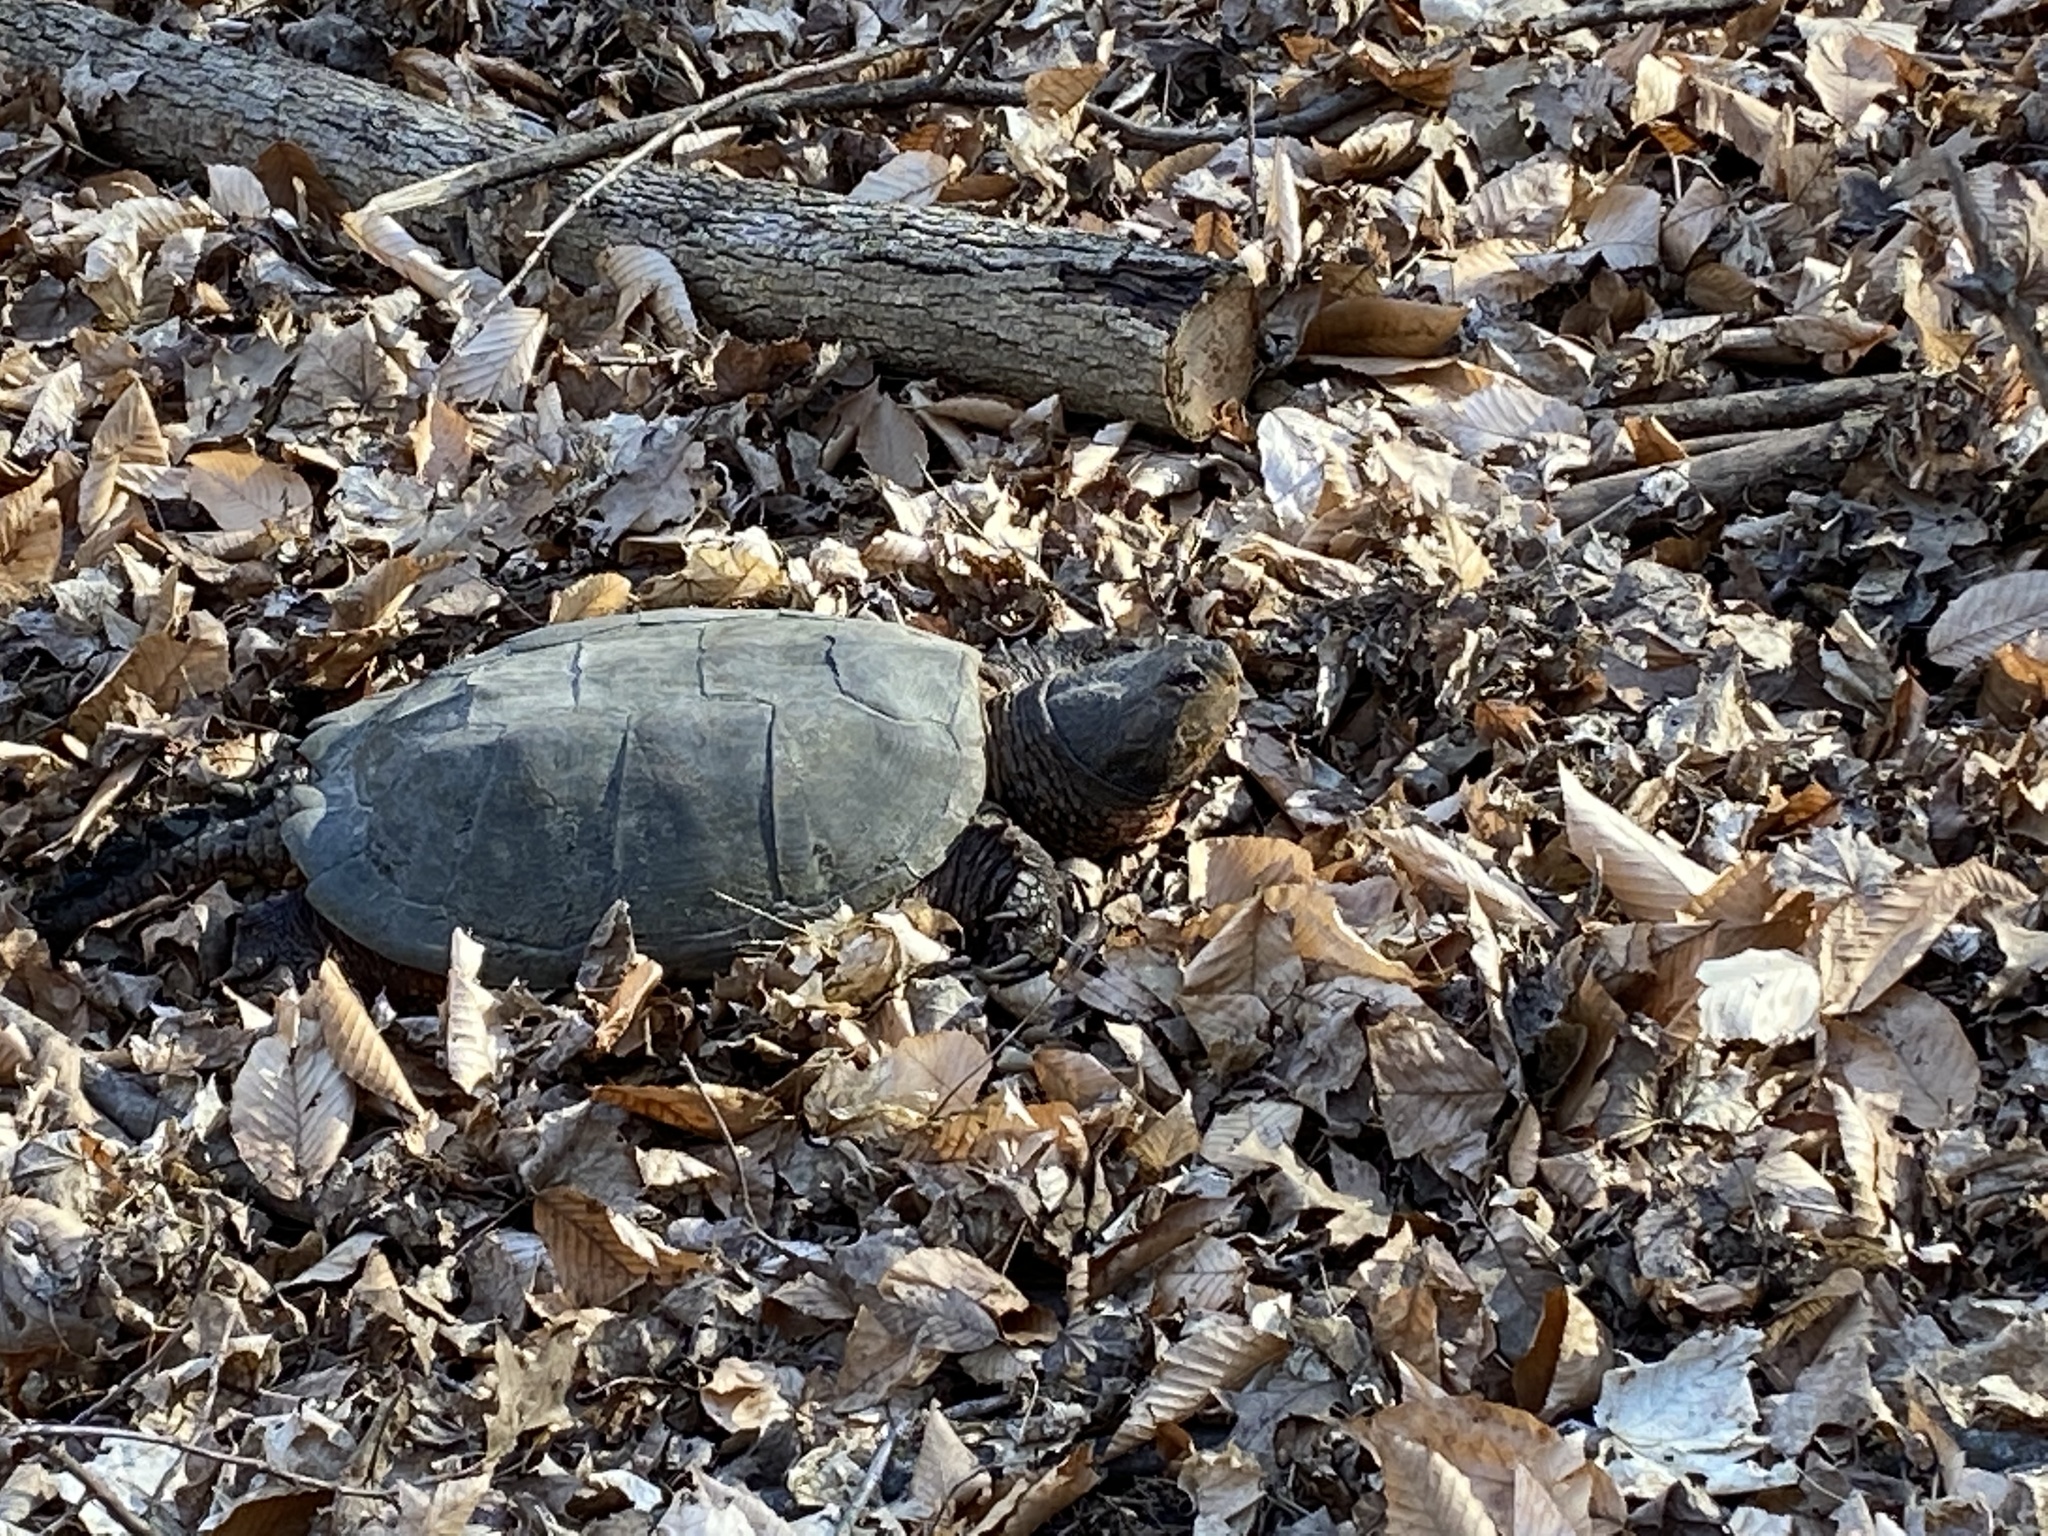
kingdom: Animalia
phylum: Chordata
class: Testudines
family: Chelydridae
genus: Chelydra
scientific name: Chelydra serpentina
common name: Common snapping turtle
